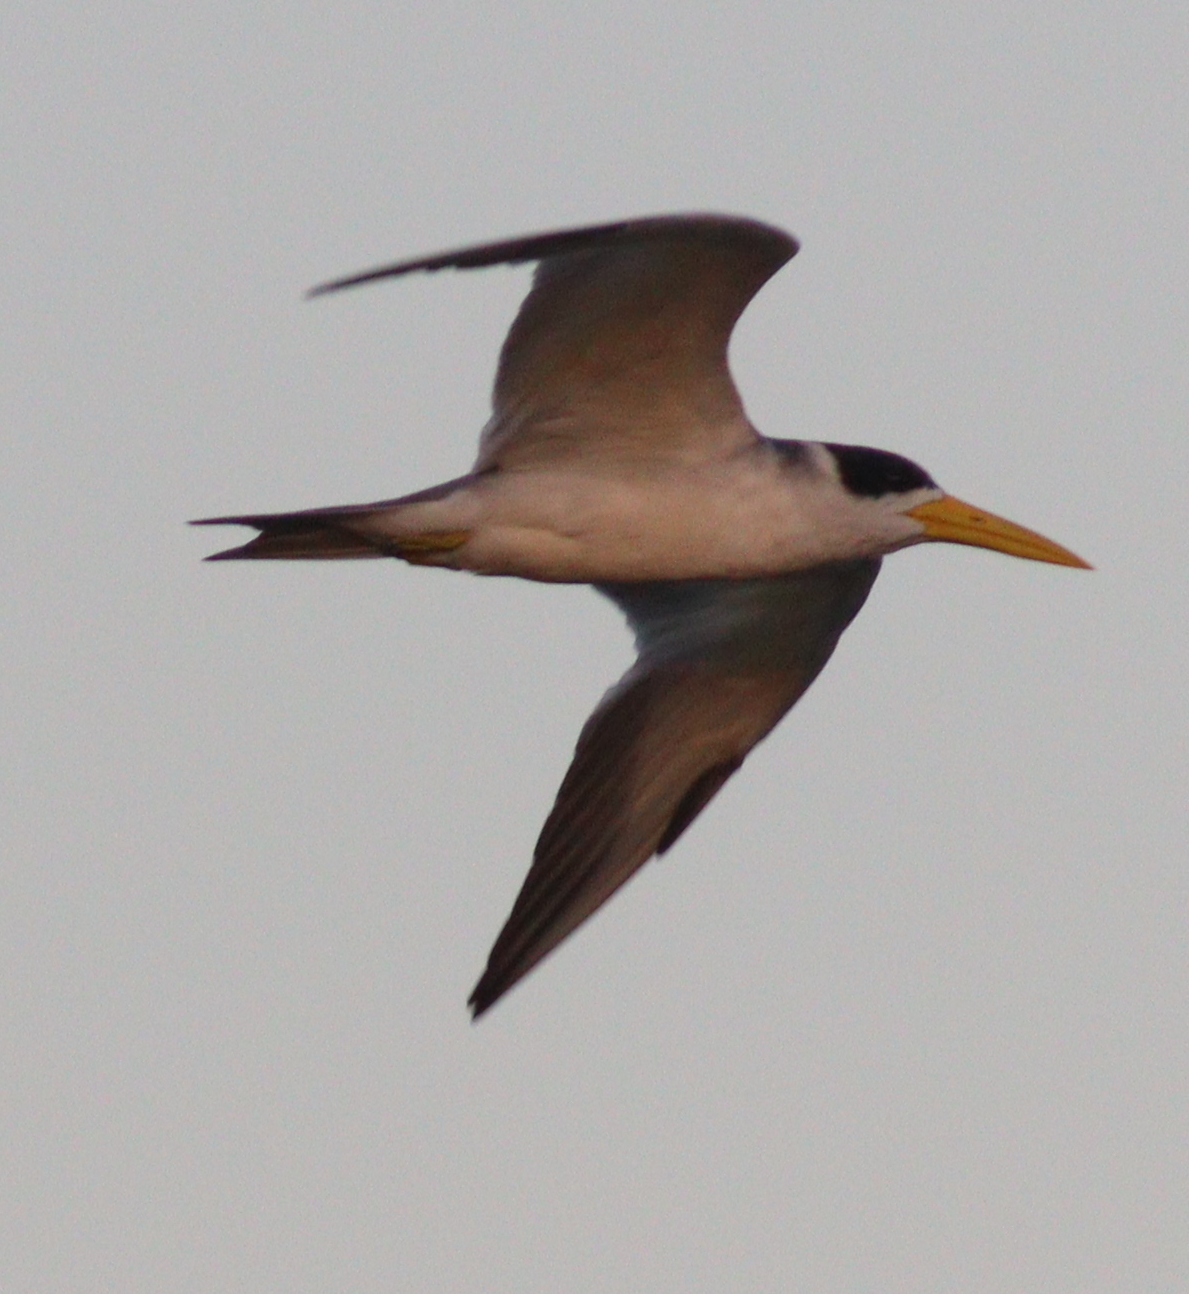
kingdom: Animalia
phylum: Chordata
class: Aves
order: Charadriiformes
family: Laridae
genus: Phaetusa
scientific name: Phaetusa simplex
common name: Large-billed tern
